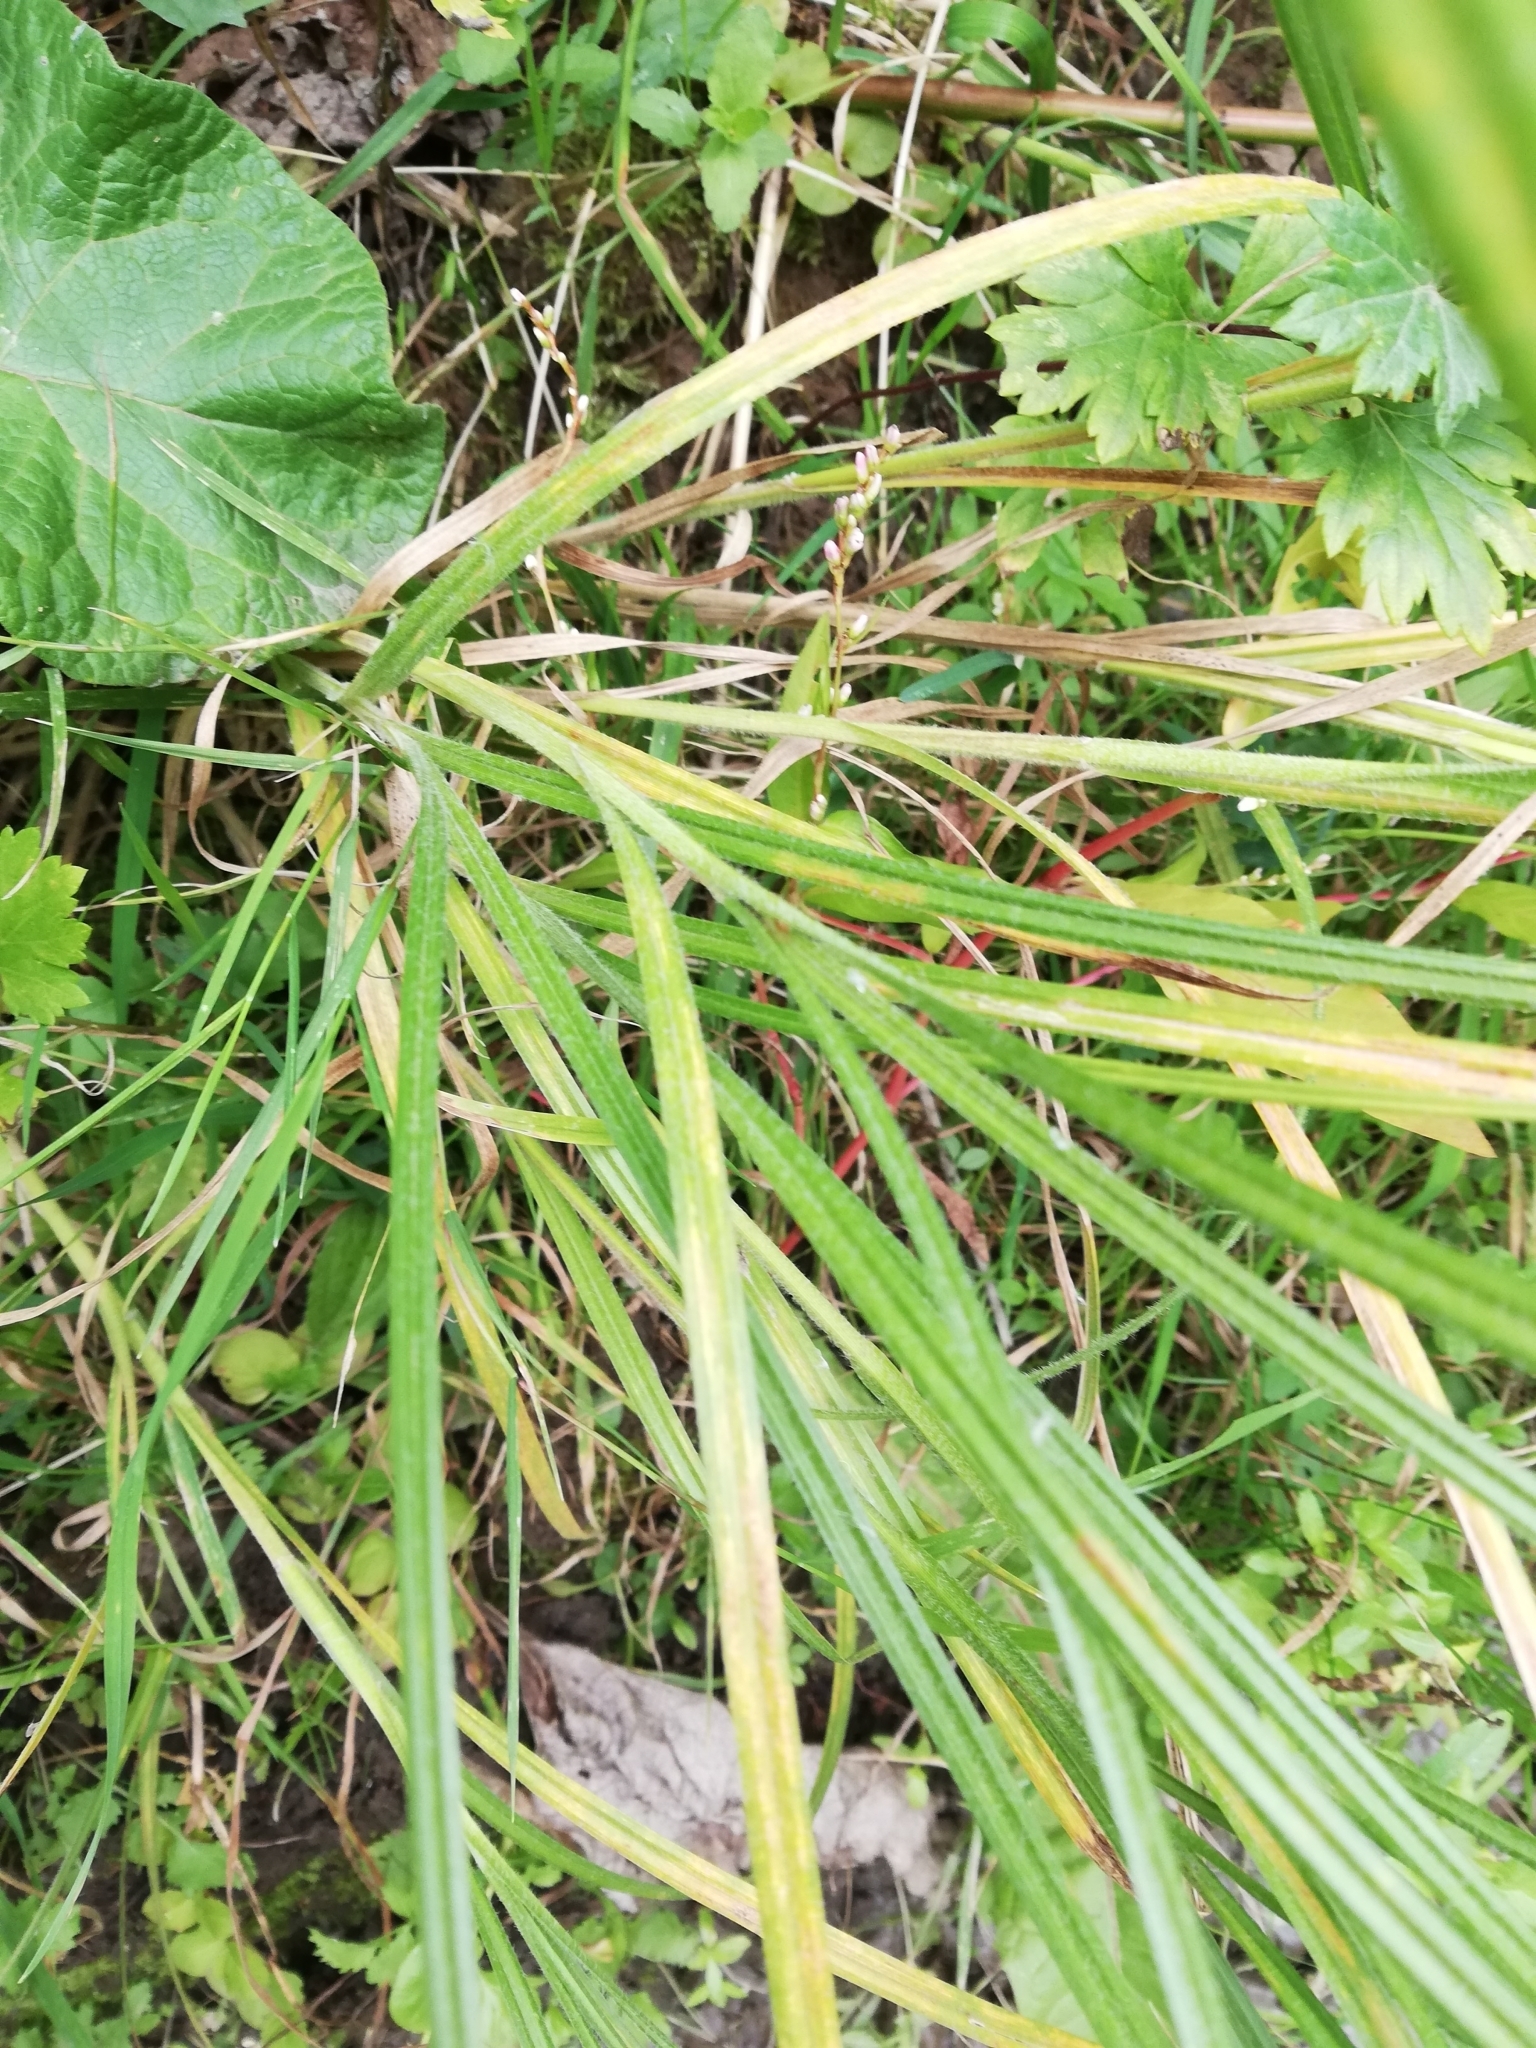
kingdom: Plantae
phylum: Tracheophyta
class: Liliopsida
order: Poales
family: Cyperaceae
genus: Carex
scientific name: Carex hirta
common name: Hairy sedge
